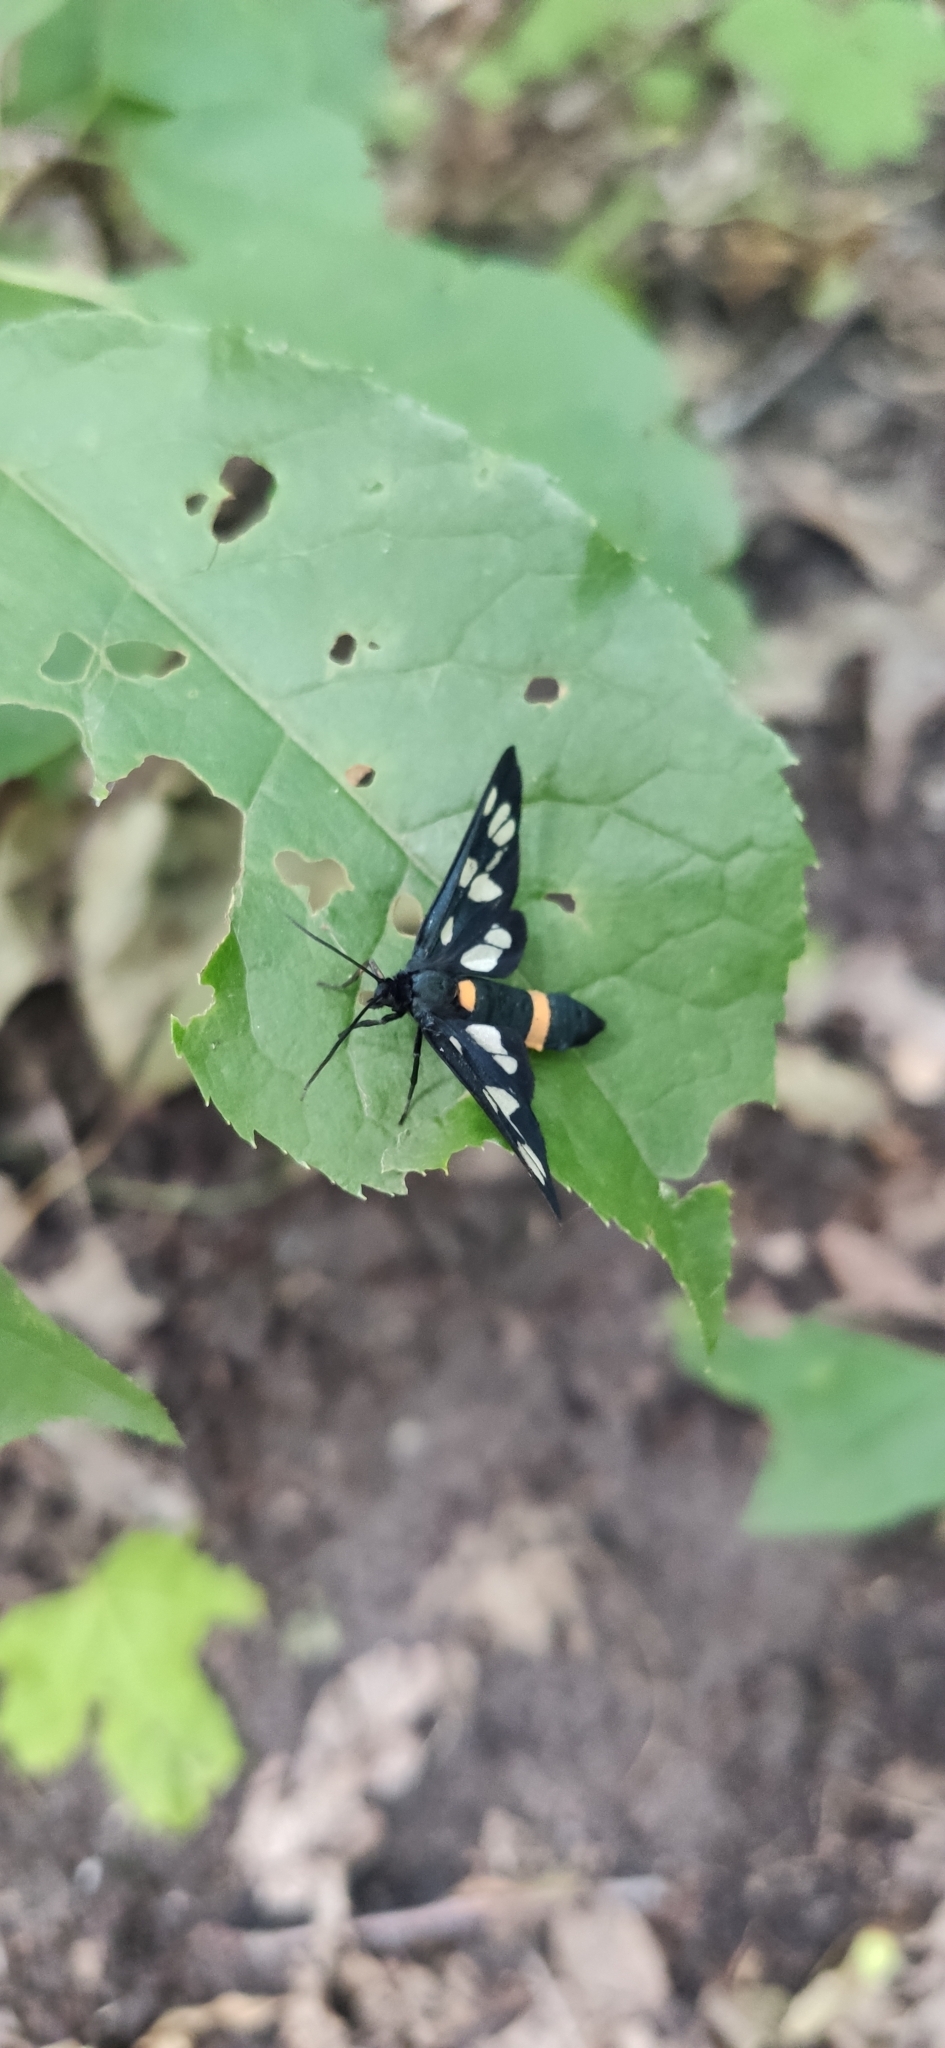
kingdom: Animalia
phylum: Arthropoda
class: Insecta
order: Lepidoptera
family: Erebidae
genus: Amata
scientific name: Amata nigricornis
